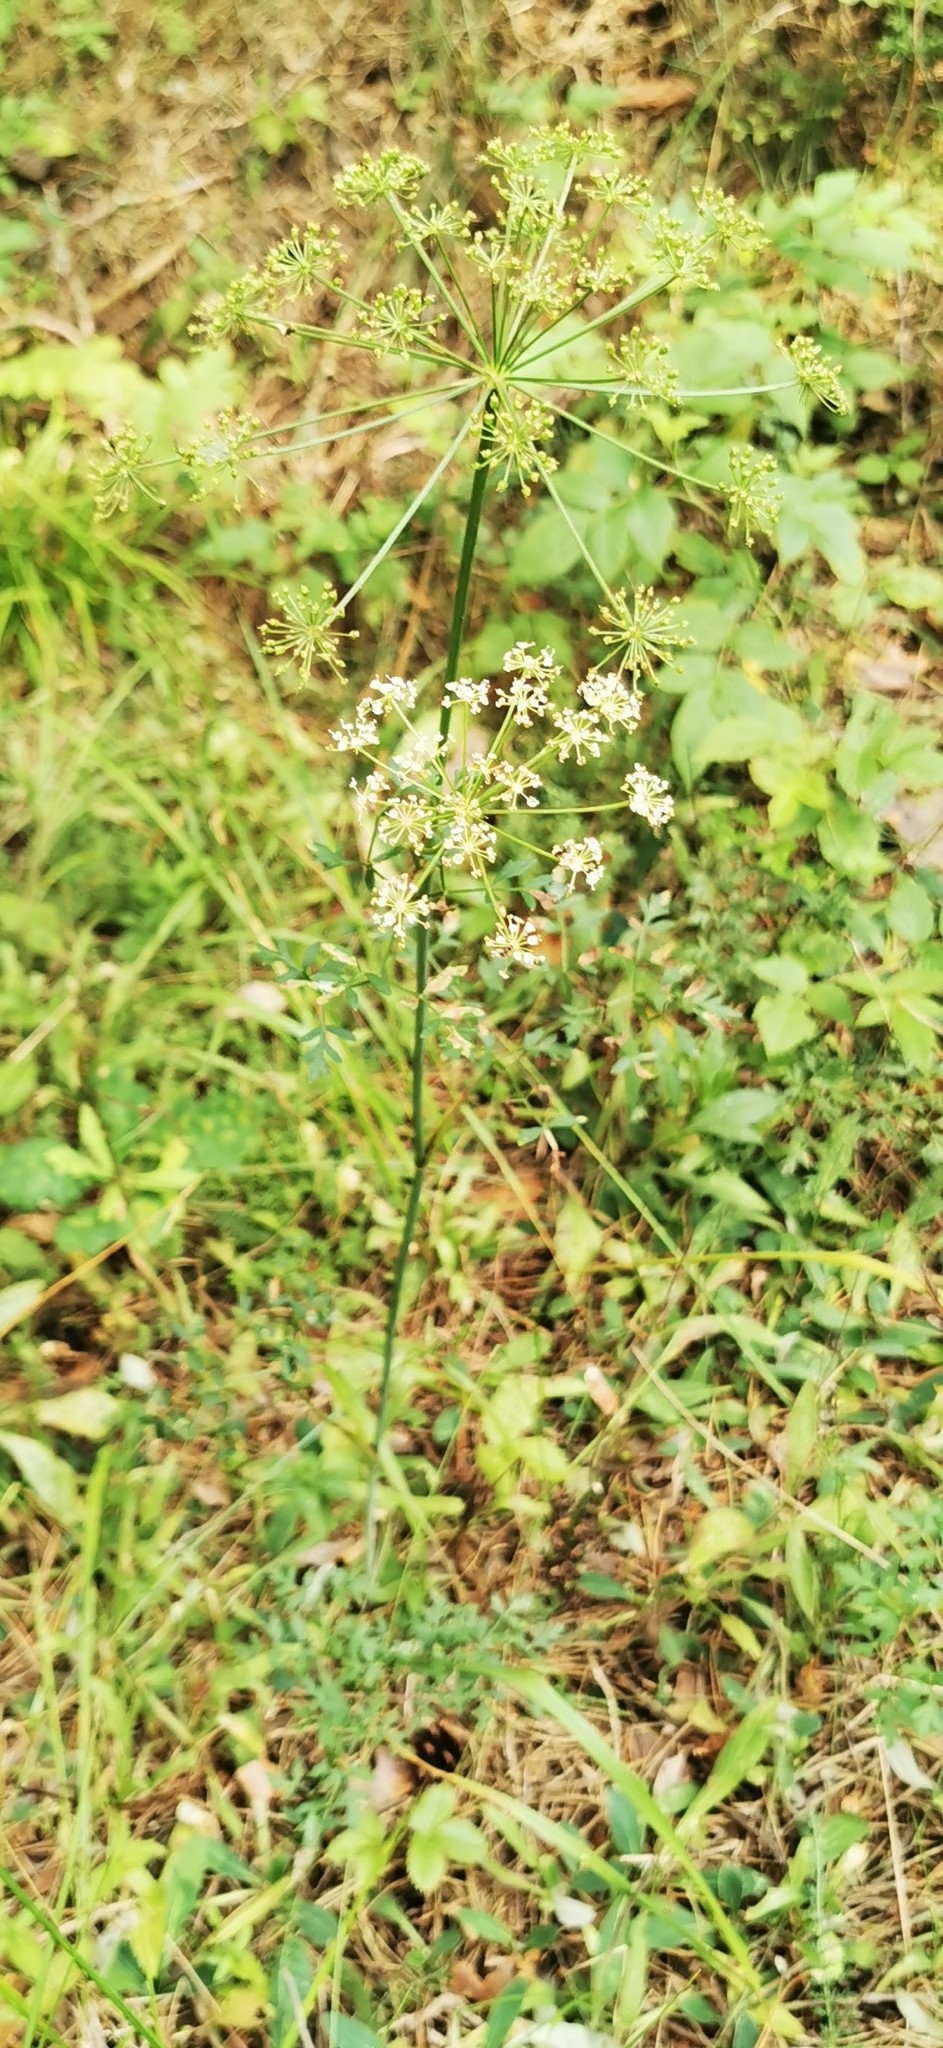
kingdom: Plantae
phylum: Tracheophyta
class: Magnoliopsida
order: Apiales
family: Apiaceae
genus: Oreoselinum
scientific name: Oreoselinum nigrum
